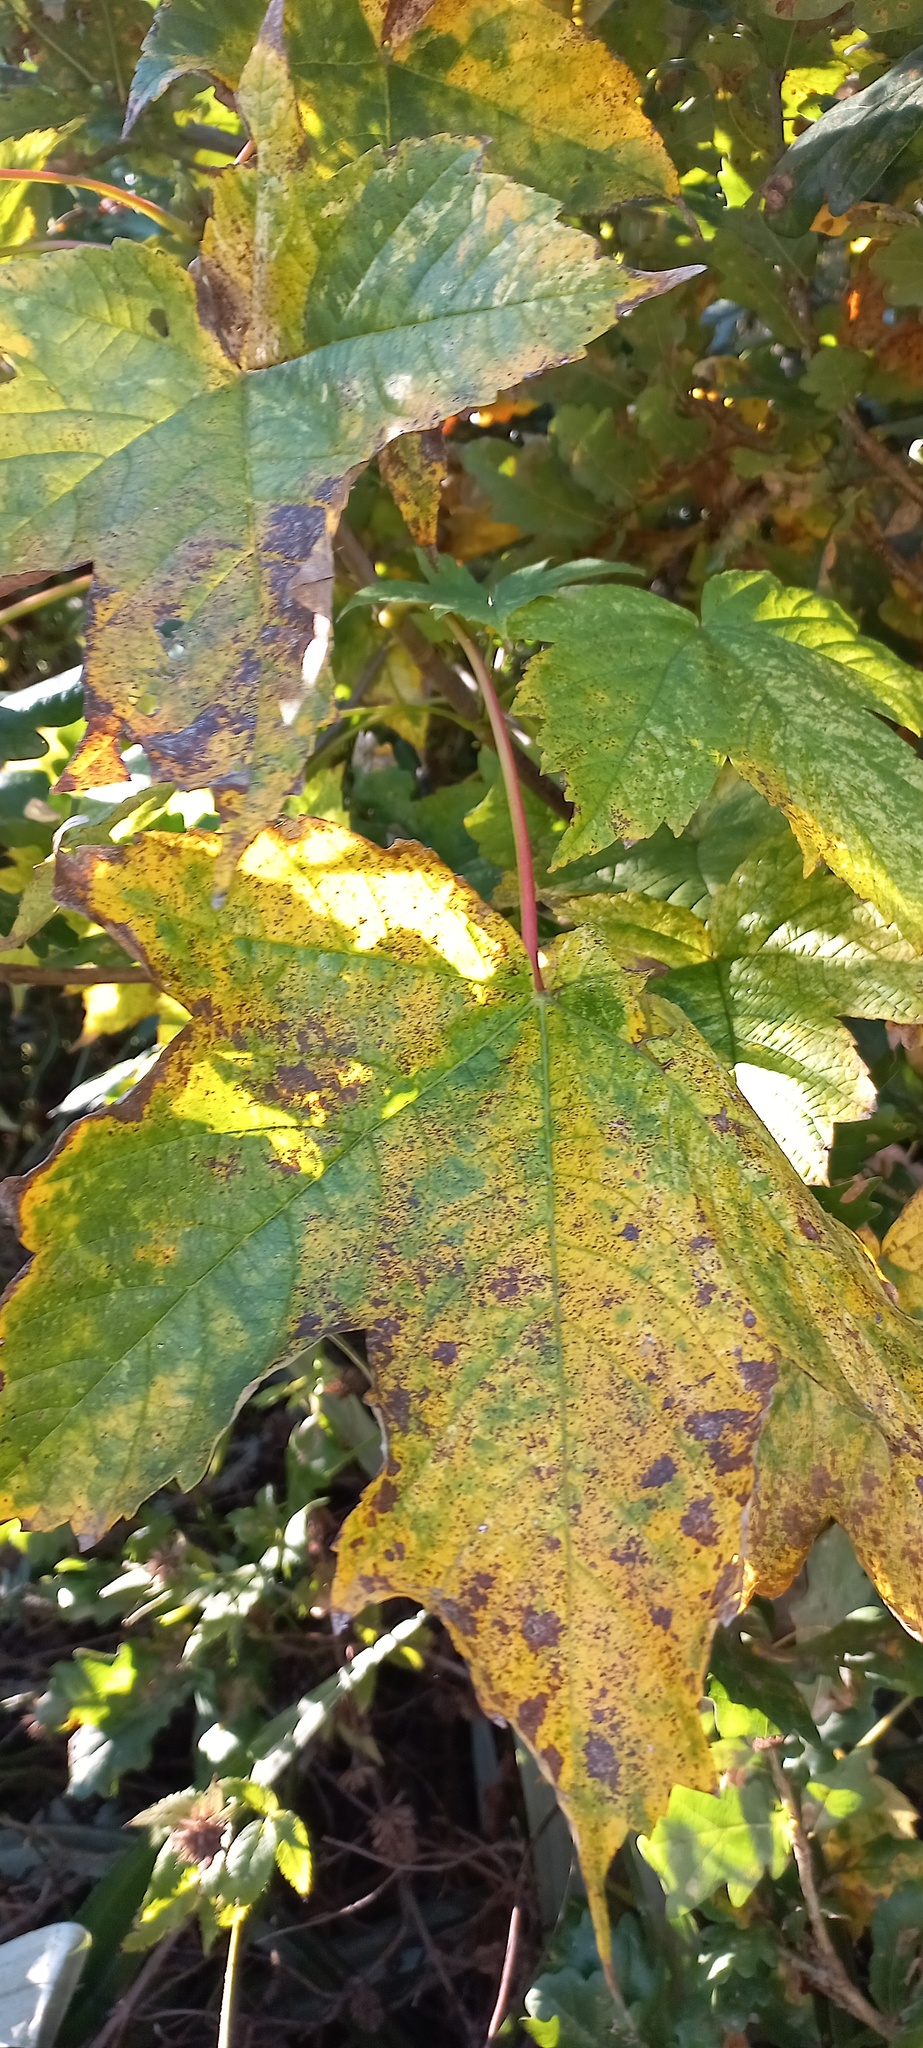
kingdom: Plantae
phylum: Tracheophyta
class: Magnoliopsida
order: Sapindales
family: Sapindaceae
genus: Acer
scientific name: Acer pseudoplatanus
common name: Sycamore
